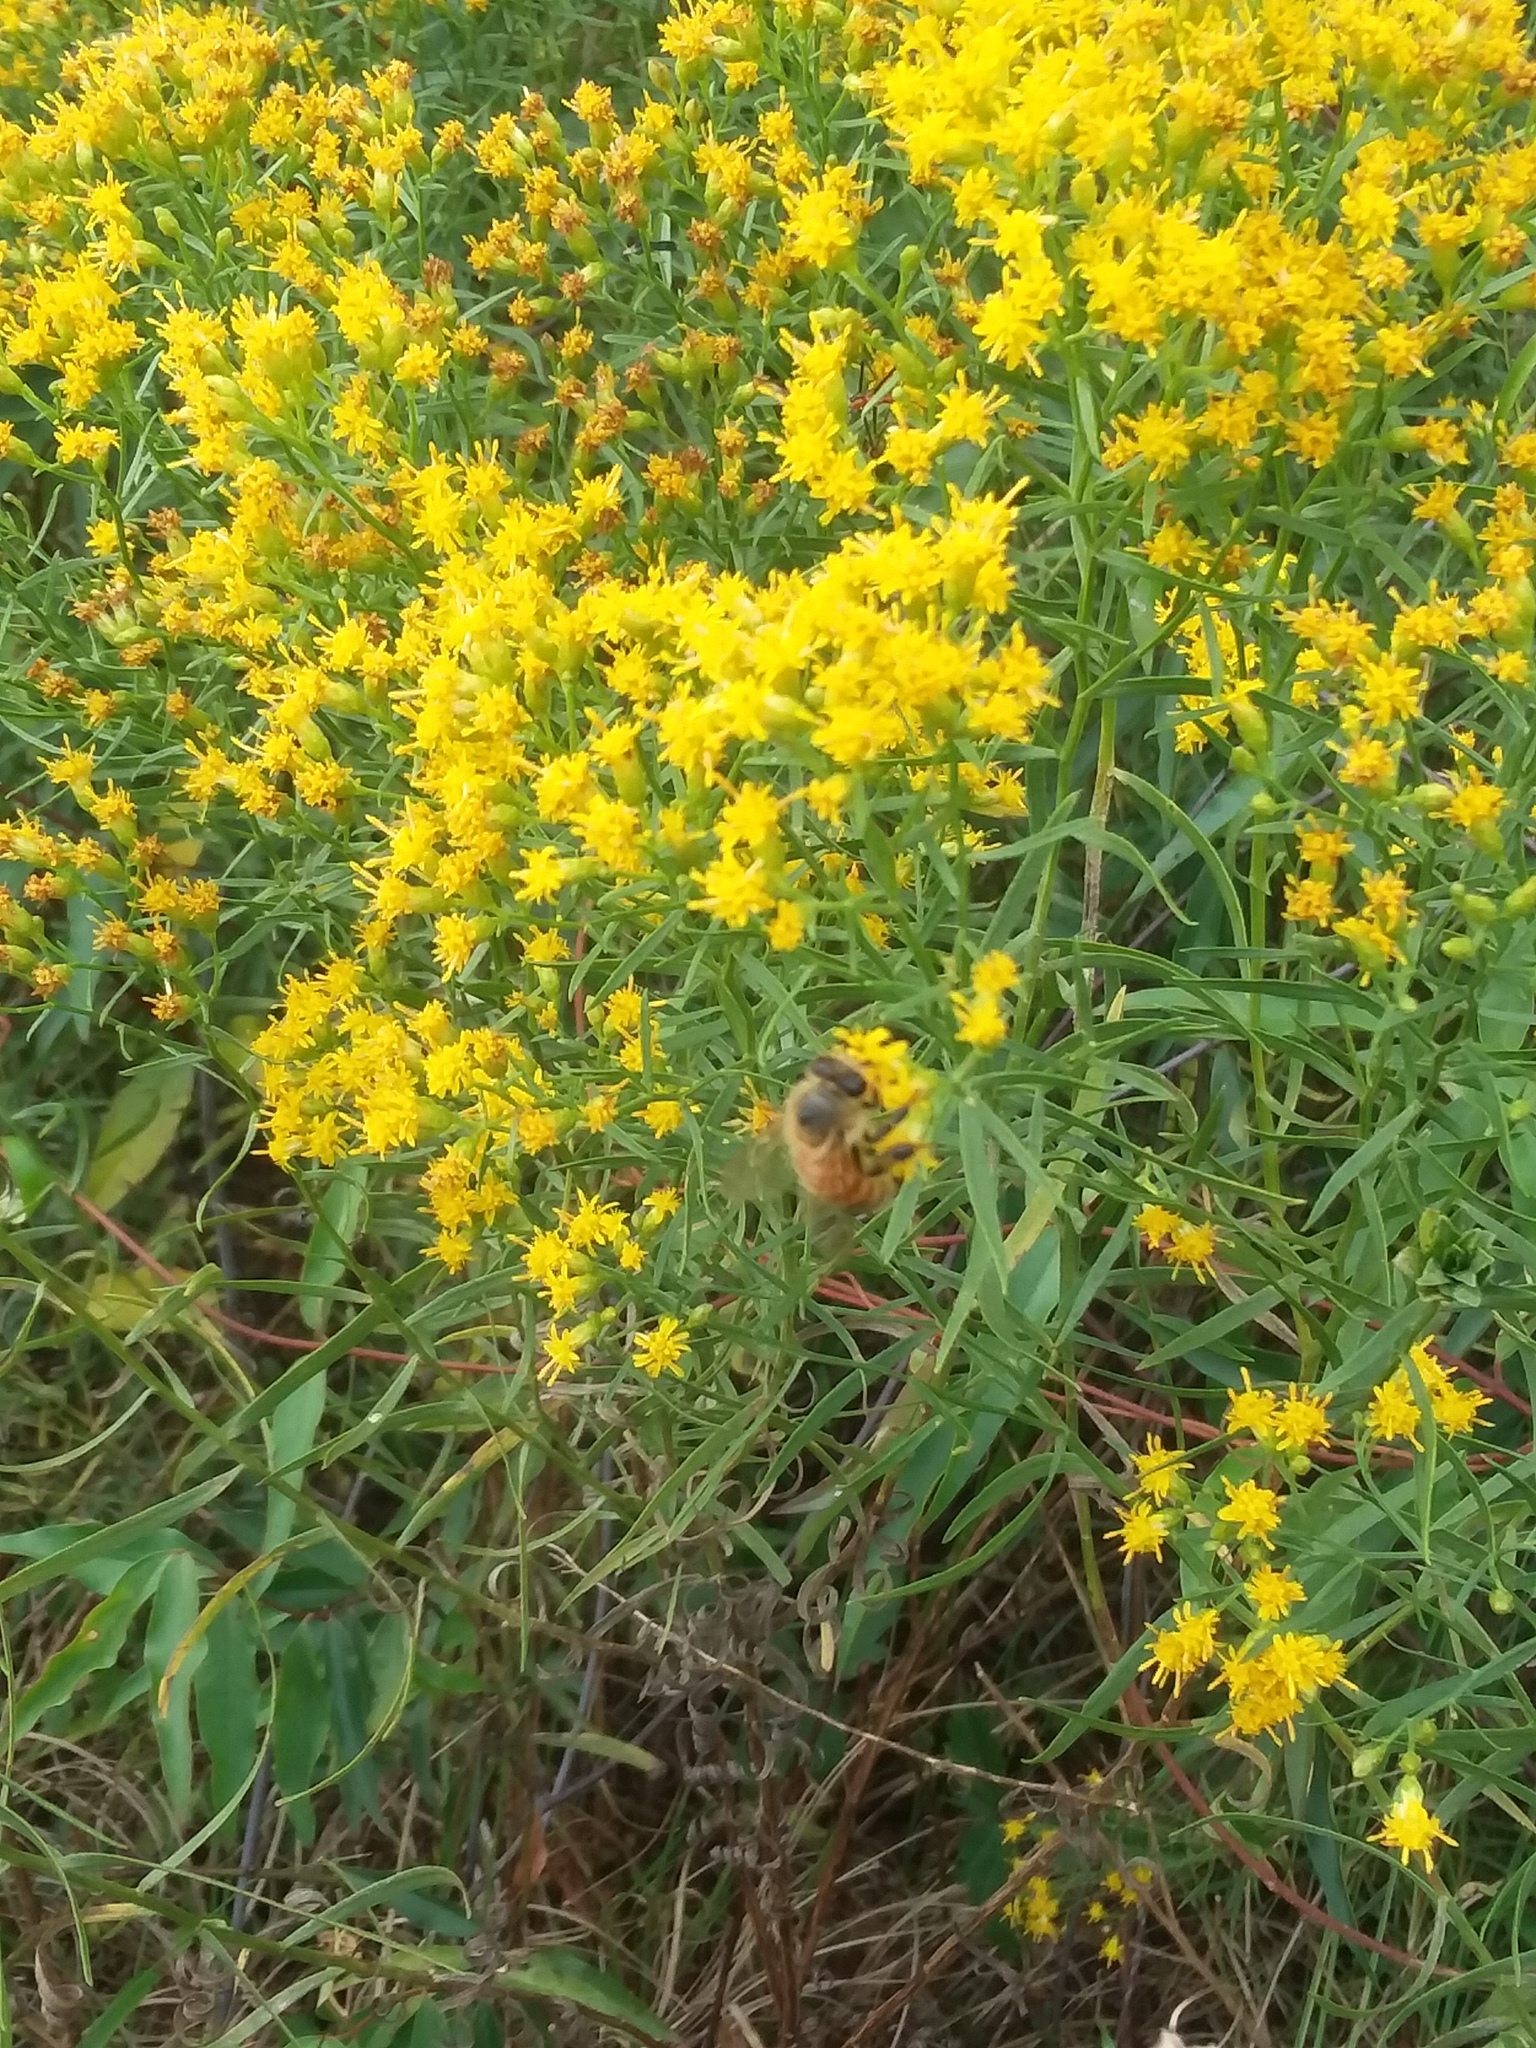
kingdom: Animalia
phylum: Arthropoda
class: Insecta
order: Hymenoptera
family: Apidae
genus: Apis
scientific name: Apis mellifera
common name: Honey bee
